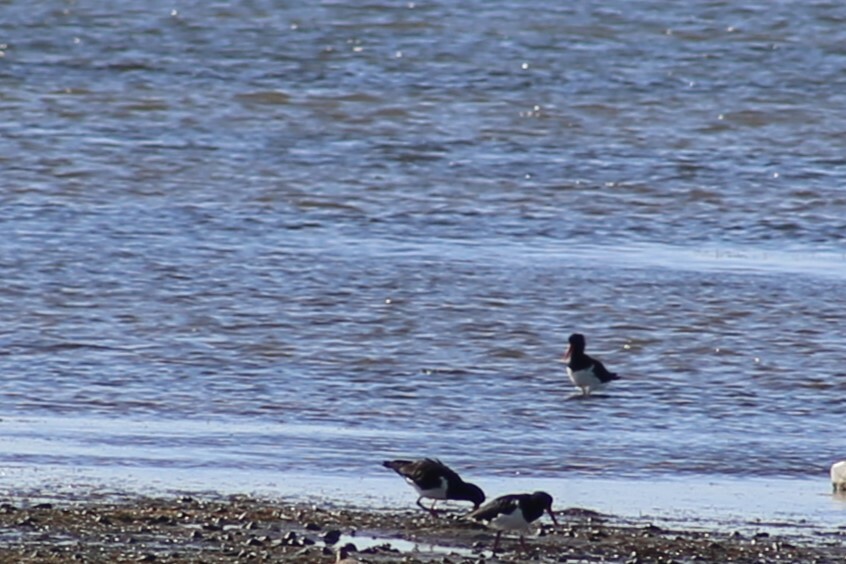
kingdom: Animalia
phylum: Chordata
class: Aves
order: Charadriiformes
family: Haematopodidae
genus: Haematopus
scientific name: Haematopus longirostris
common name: Pied oystercatcher
